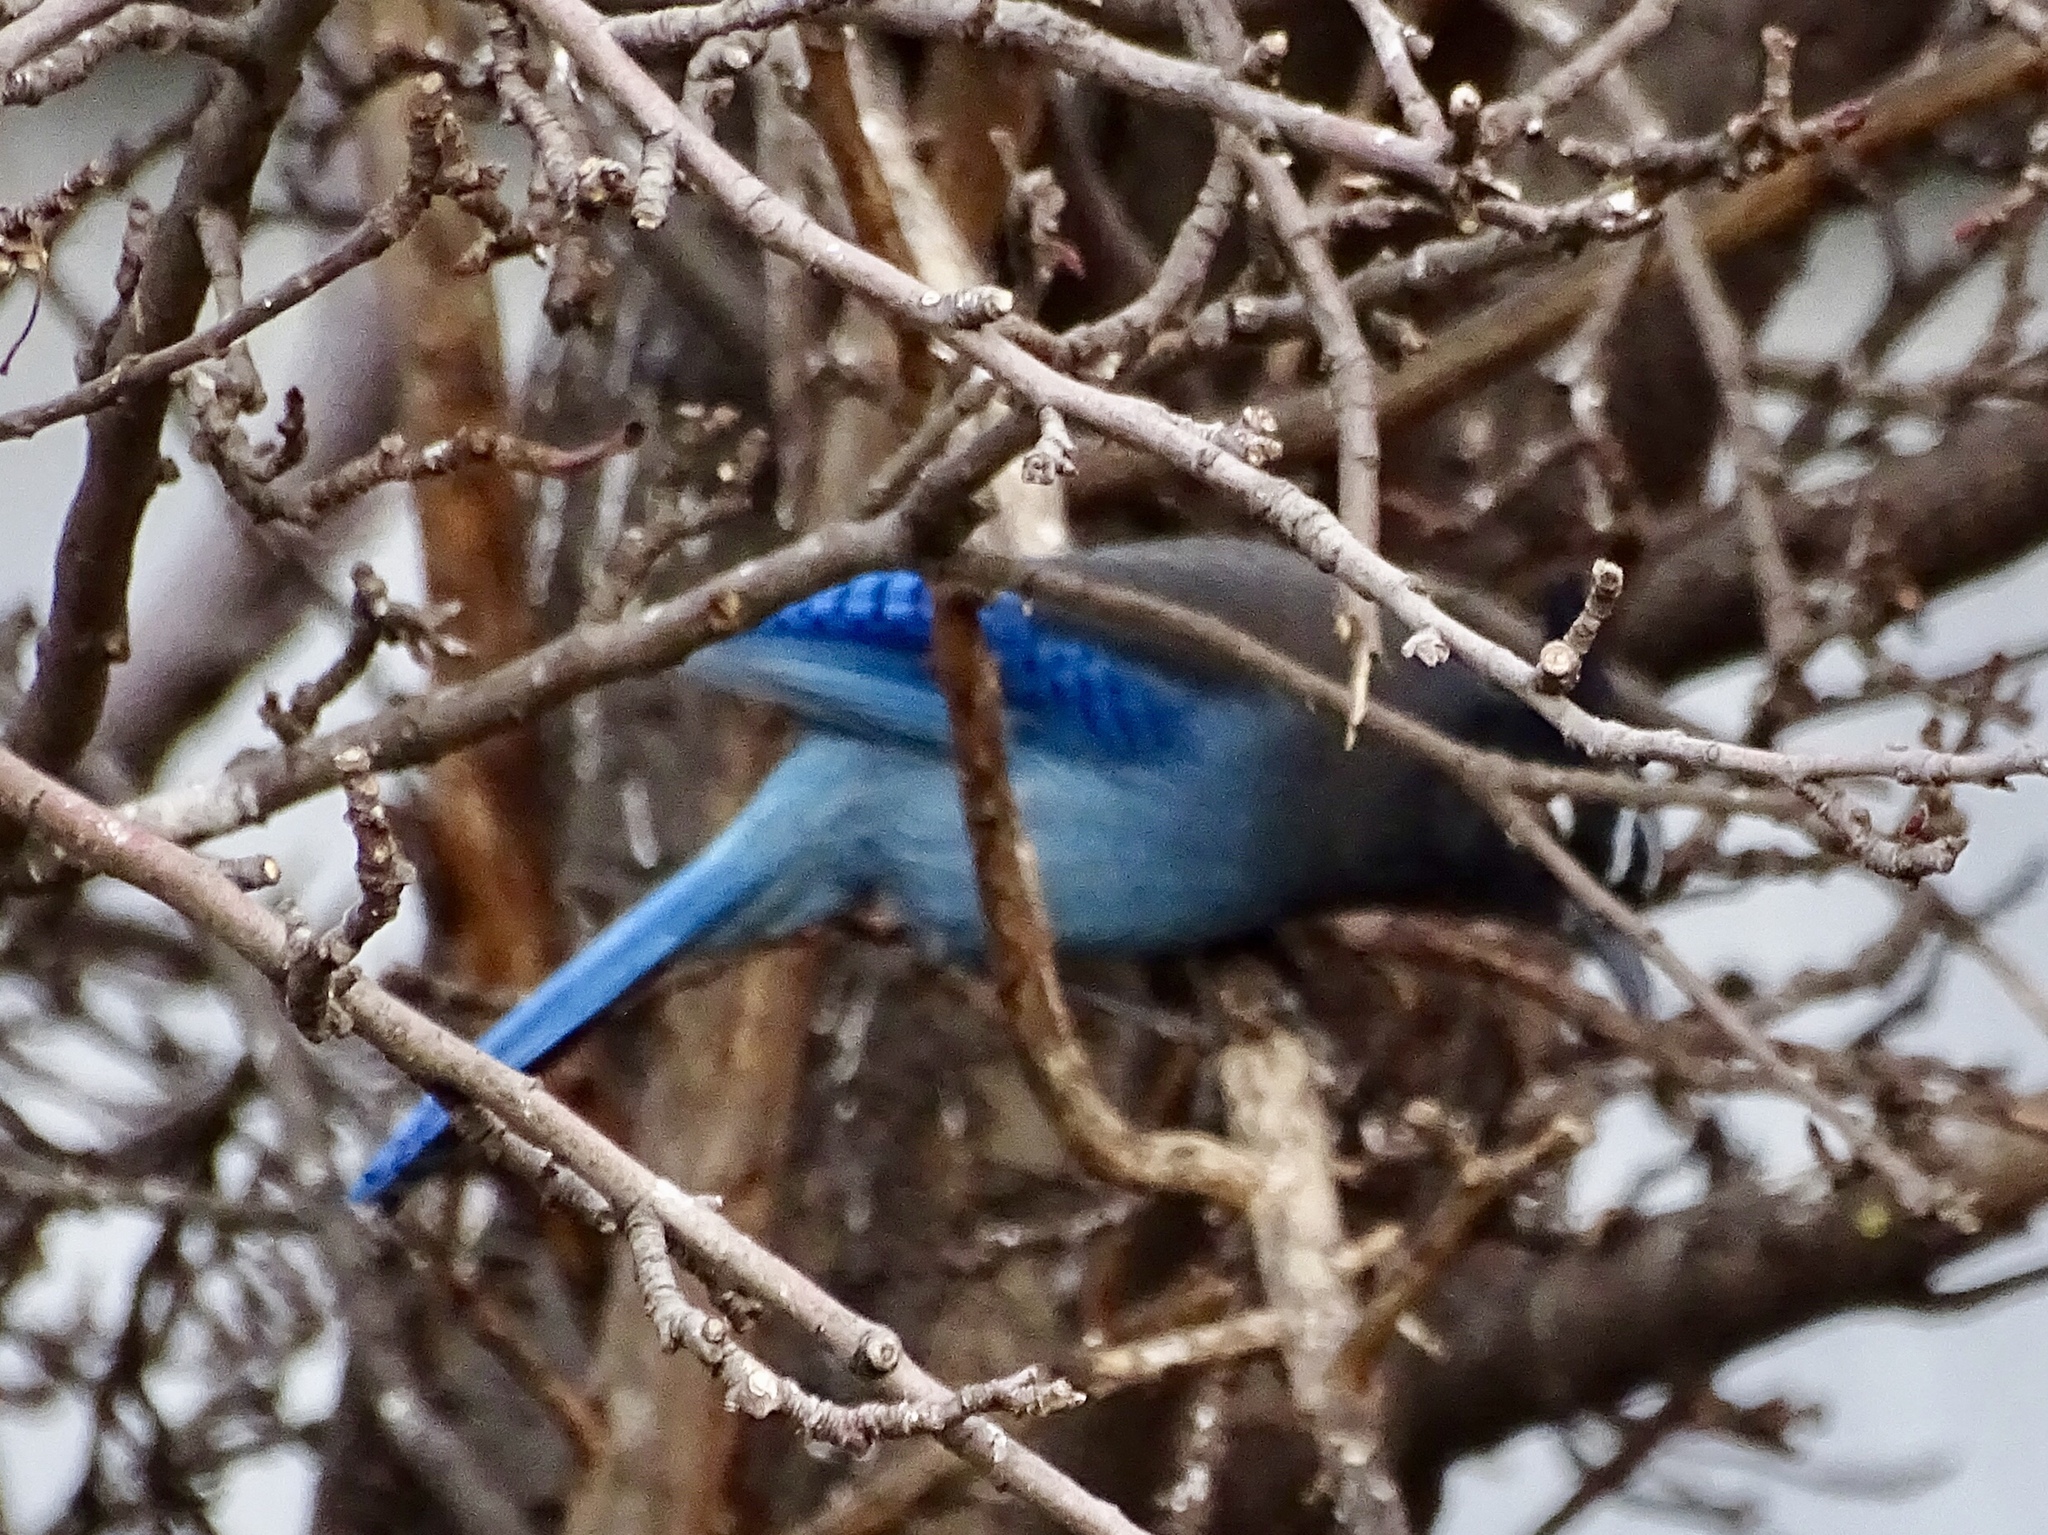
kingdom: Animalia
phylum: Chordata
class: Aves
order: Passeriformes
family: Corvidae
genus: Cyanocitta
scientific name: Cyanocitta stelleri
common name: Steller's jay
